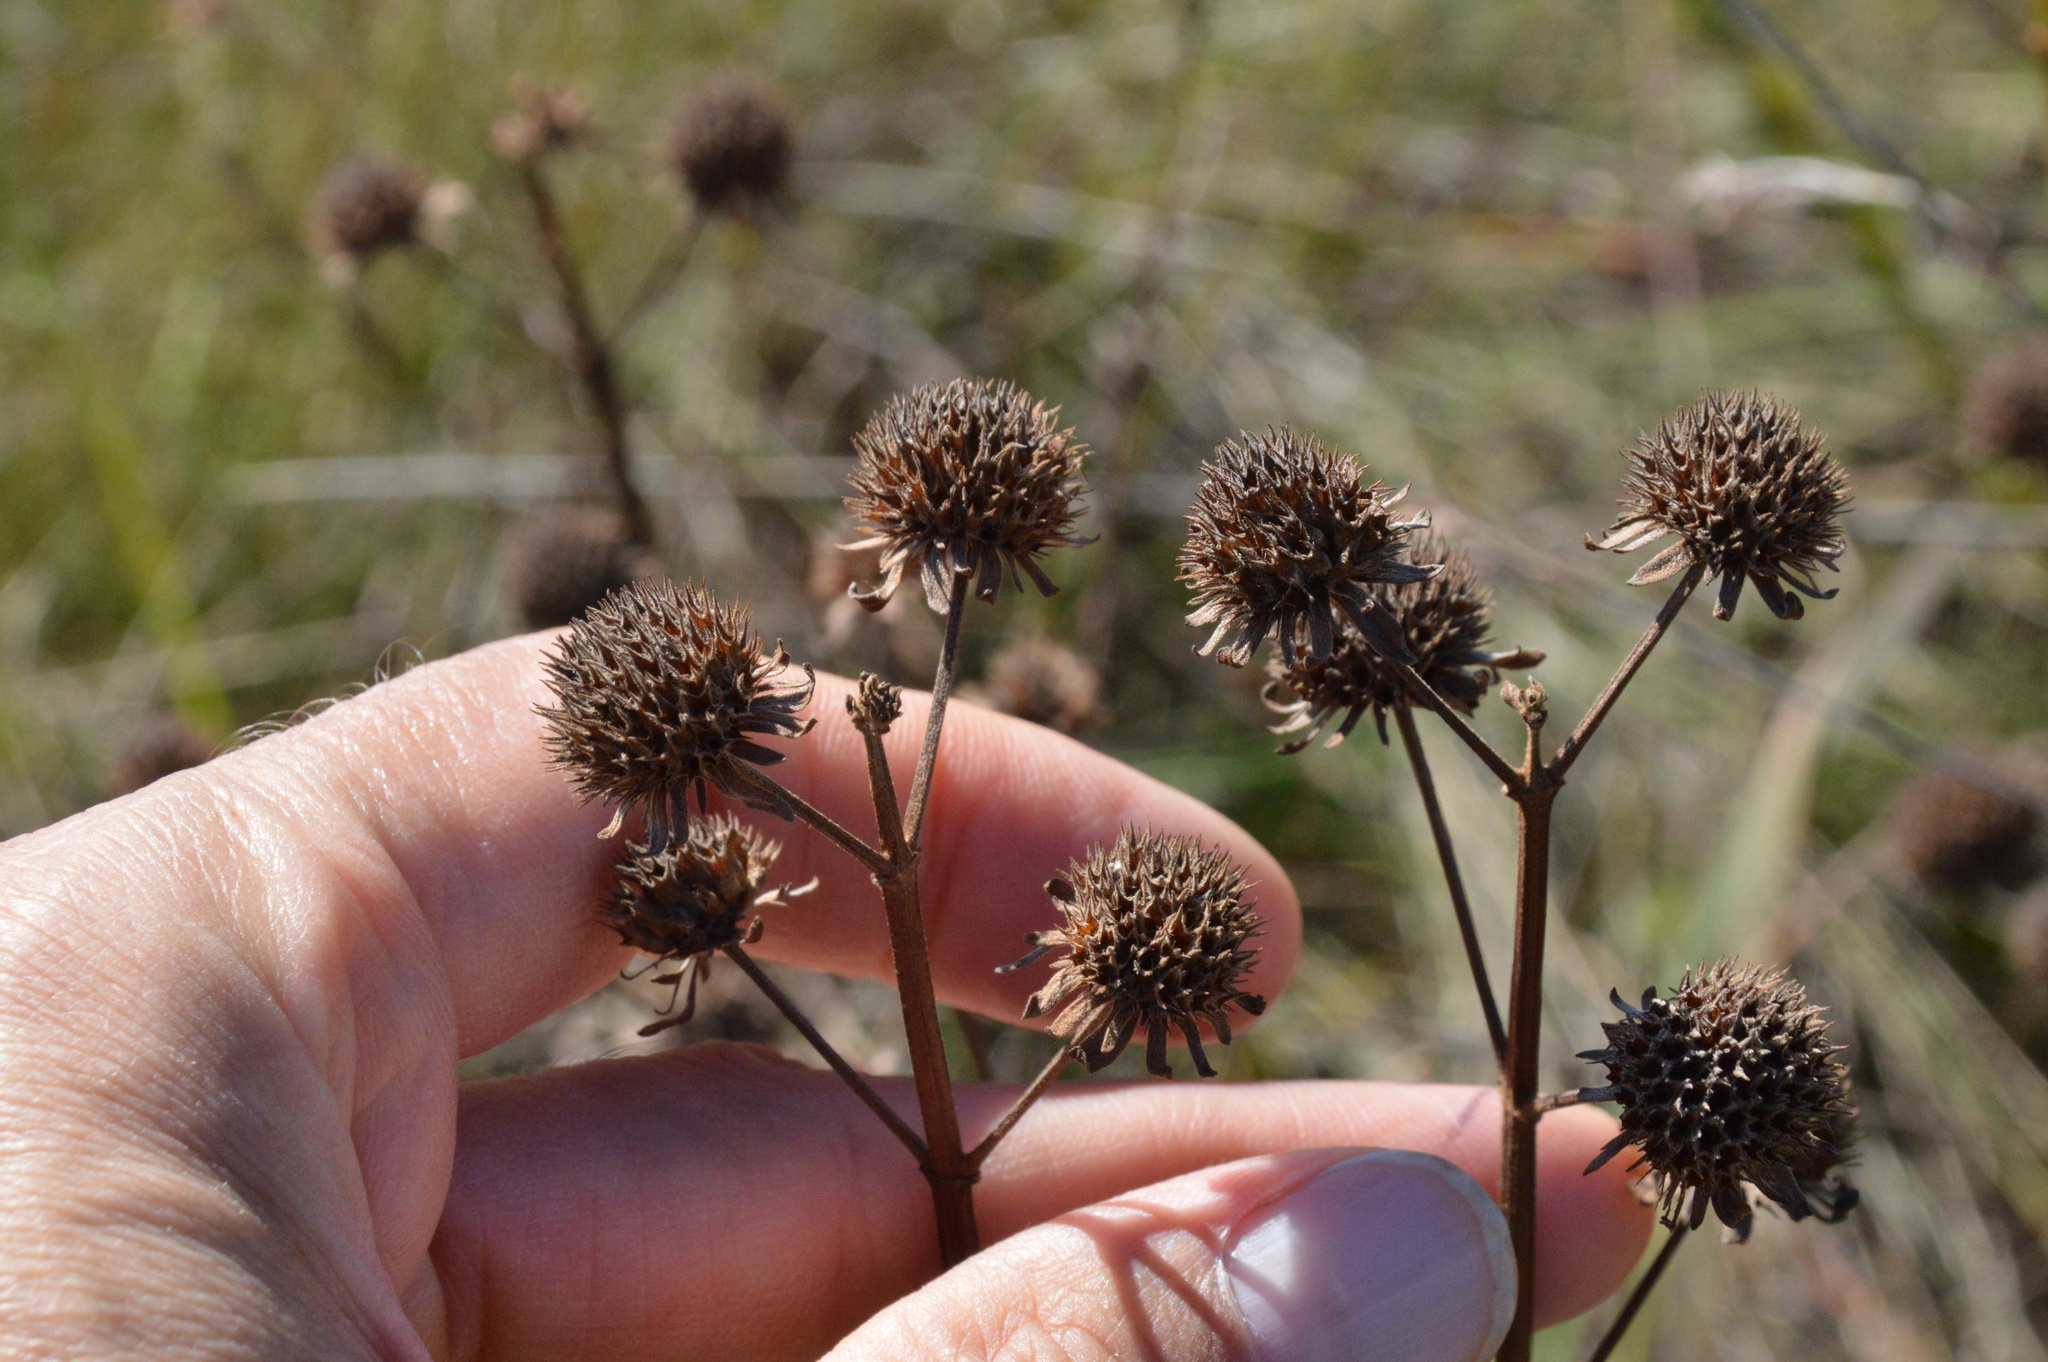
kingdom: Plantae
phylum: Tracheophyta
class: Magnoliopsida
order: Lamiales
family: Lamiaceae
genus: Hyptis
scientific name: Hyptis alata
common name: Cluster bush-mint
